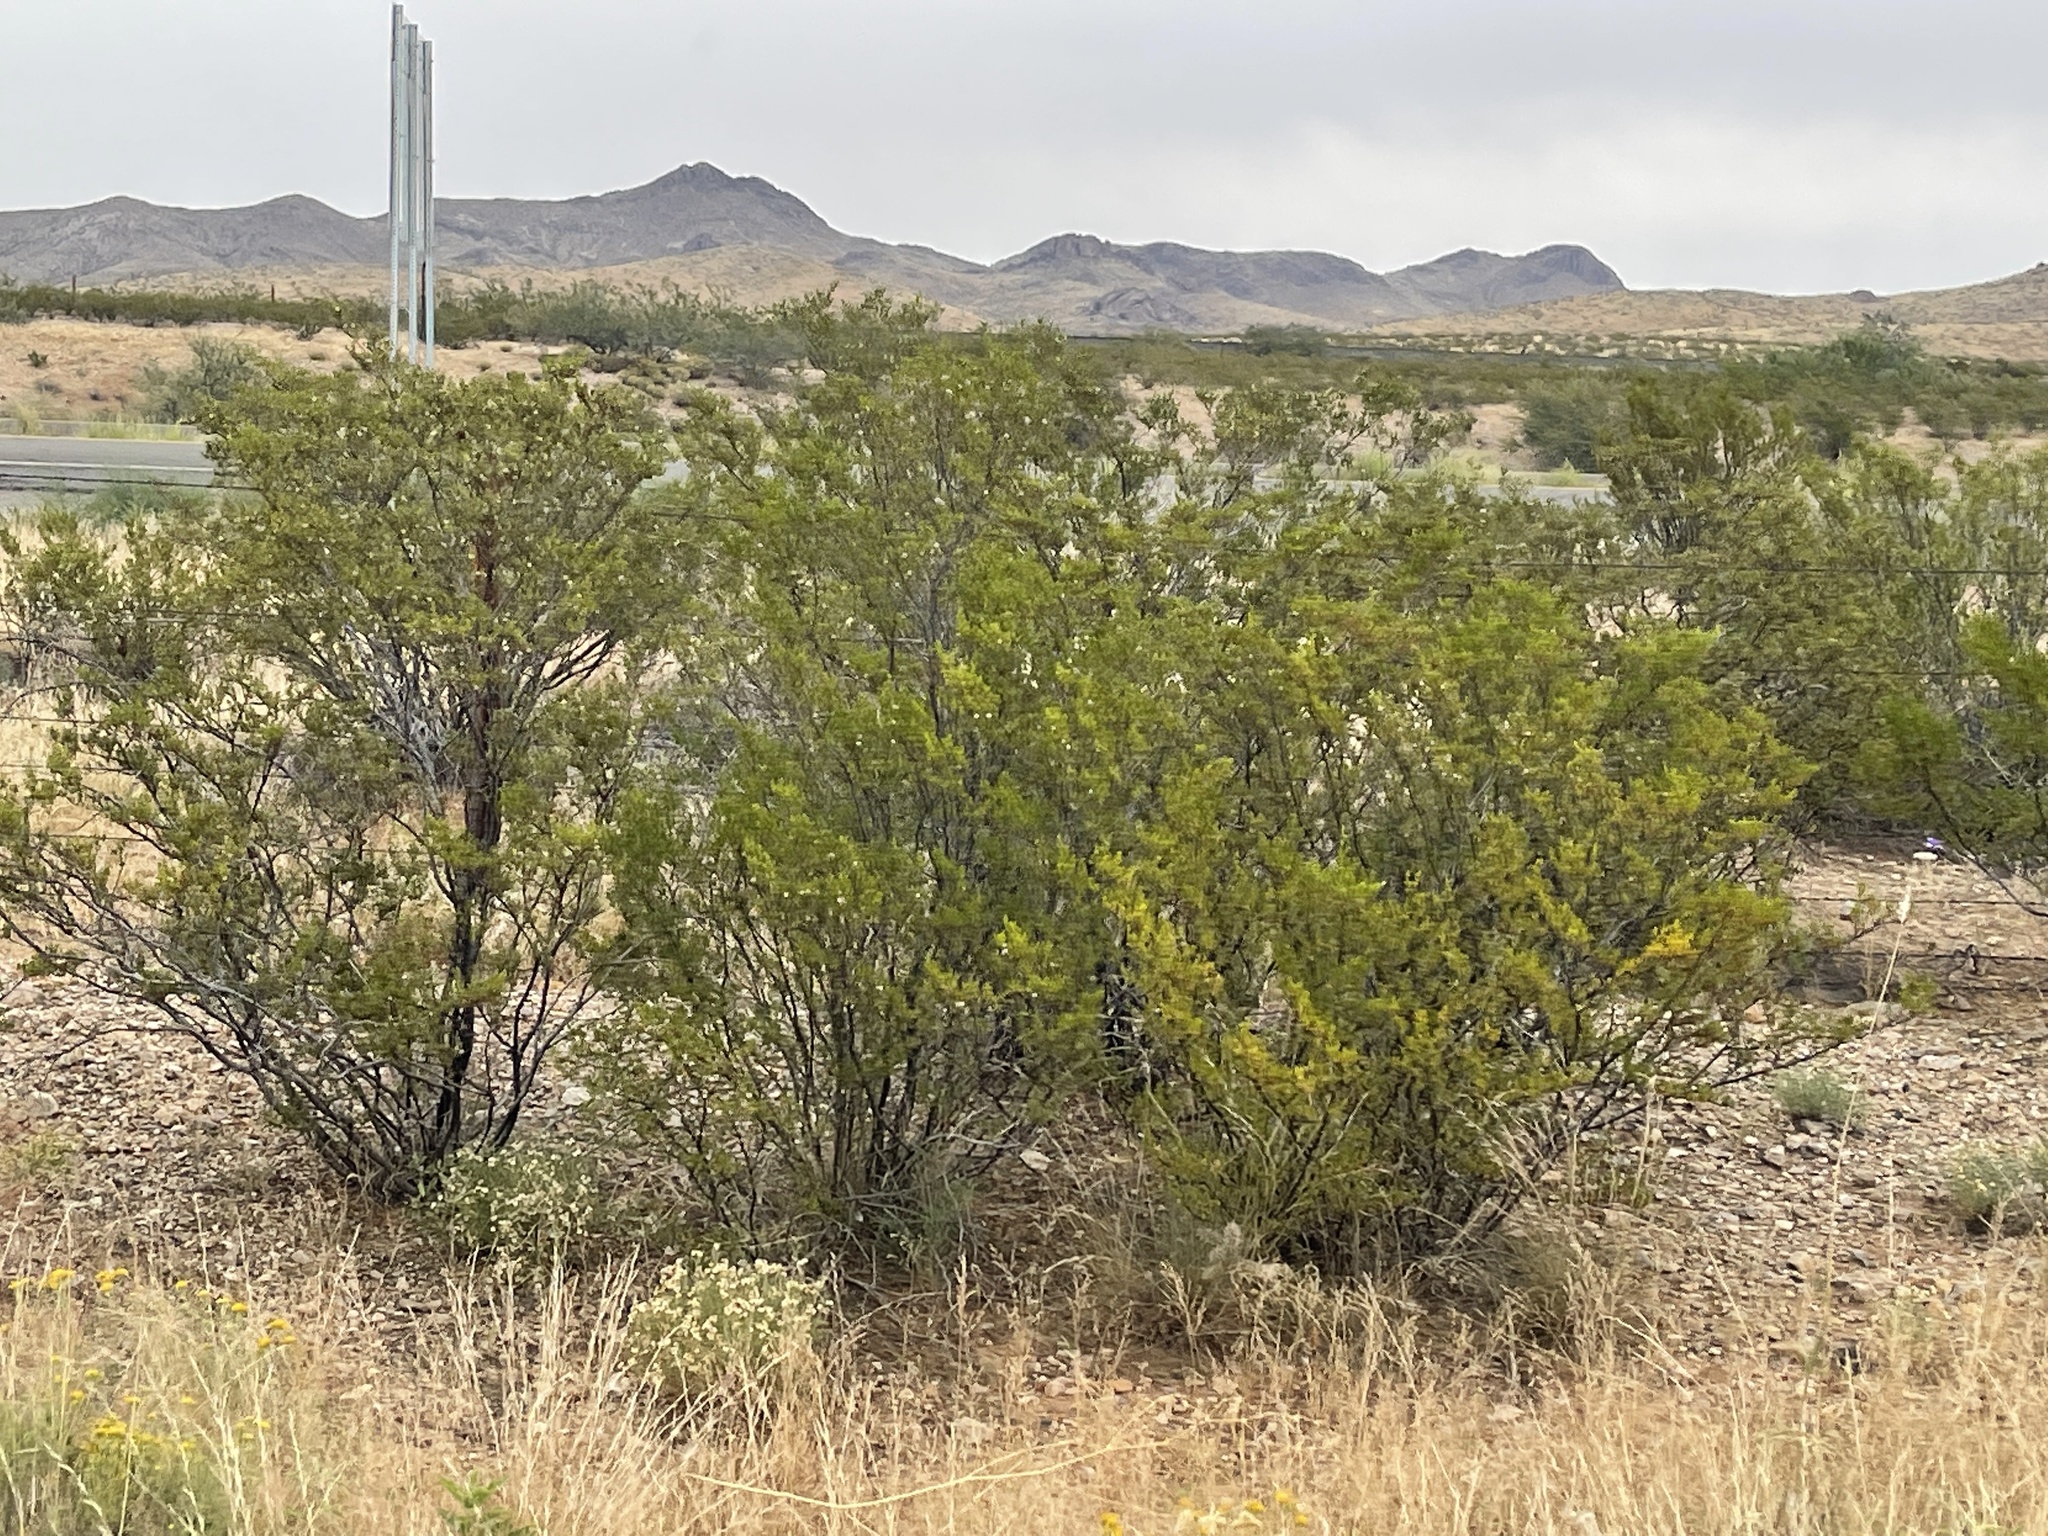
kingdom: Plantae
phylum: Tracheophyta
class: Magnoliopsida
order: Zygophyllales
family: Zygophyllaceae
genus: Larrea
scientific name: Larrea tridentata
